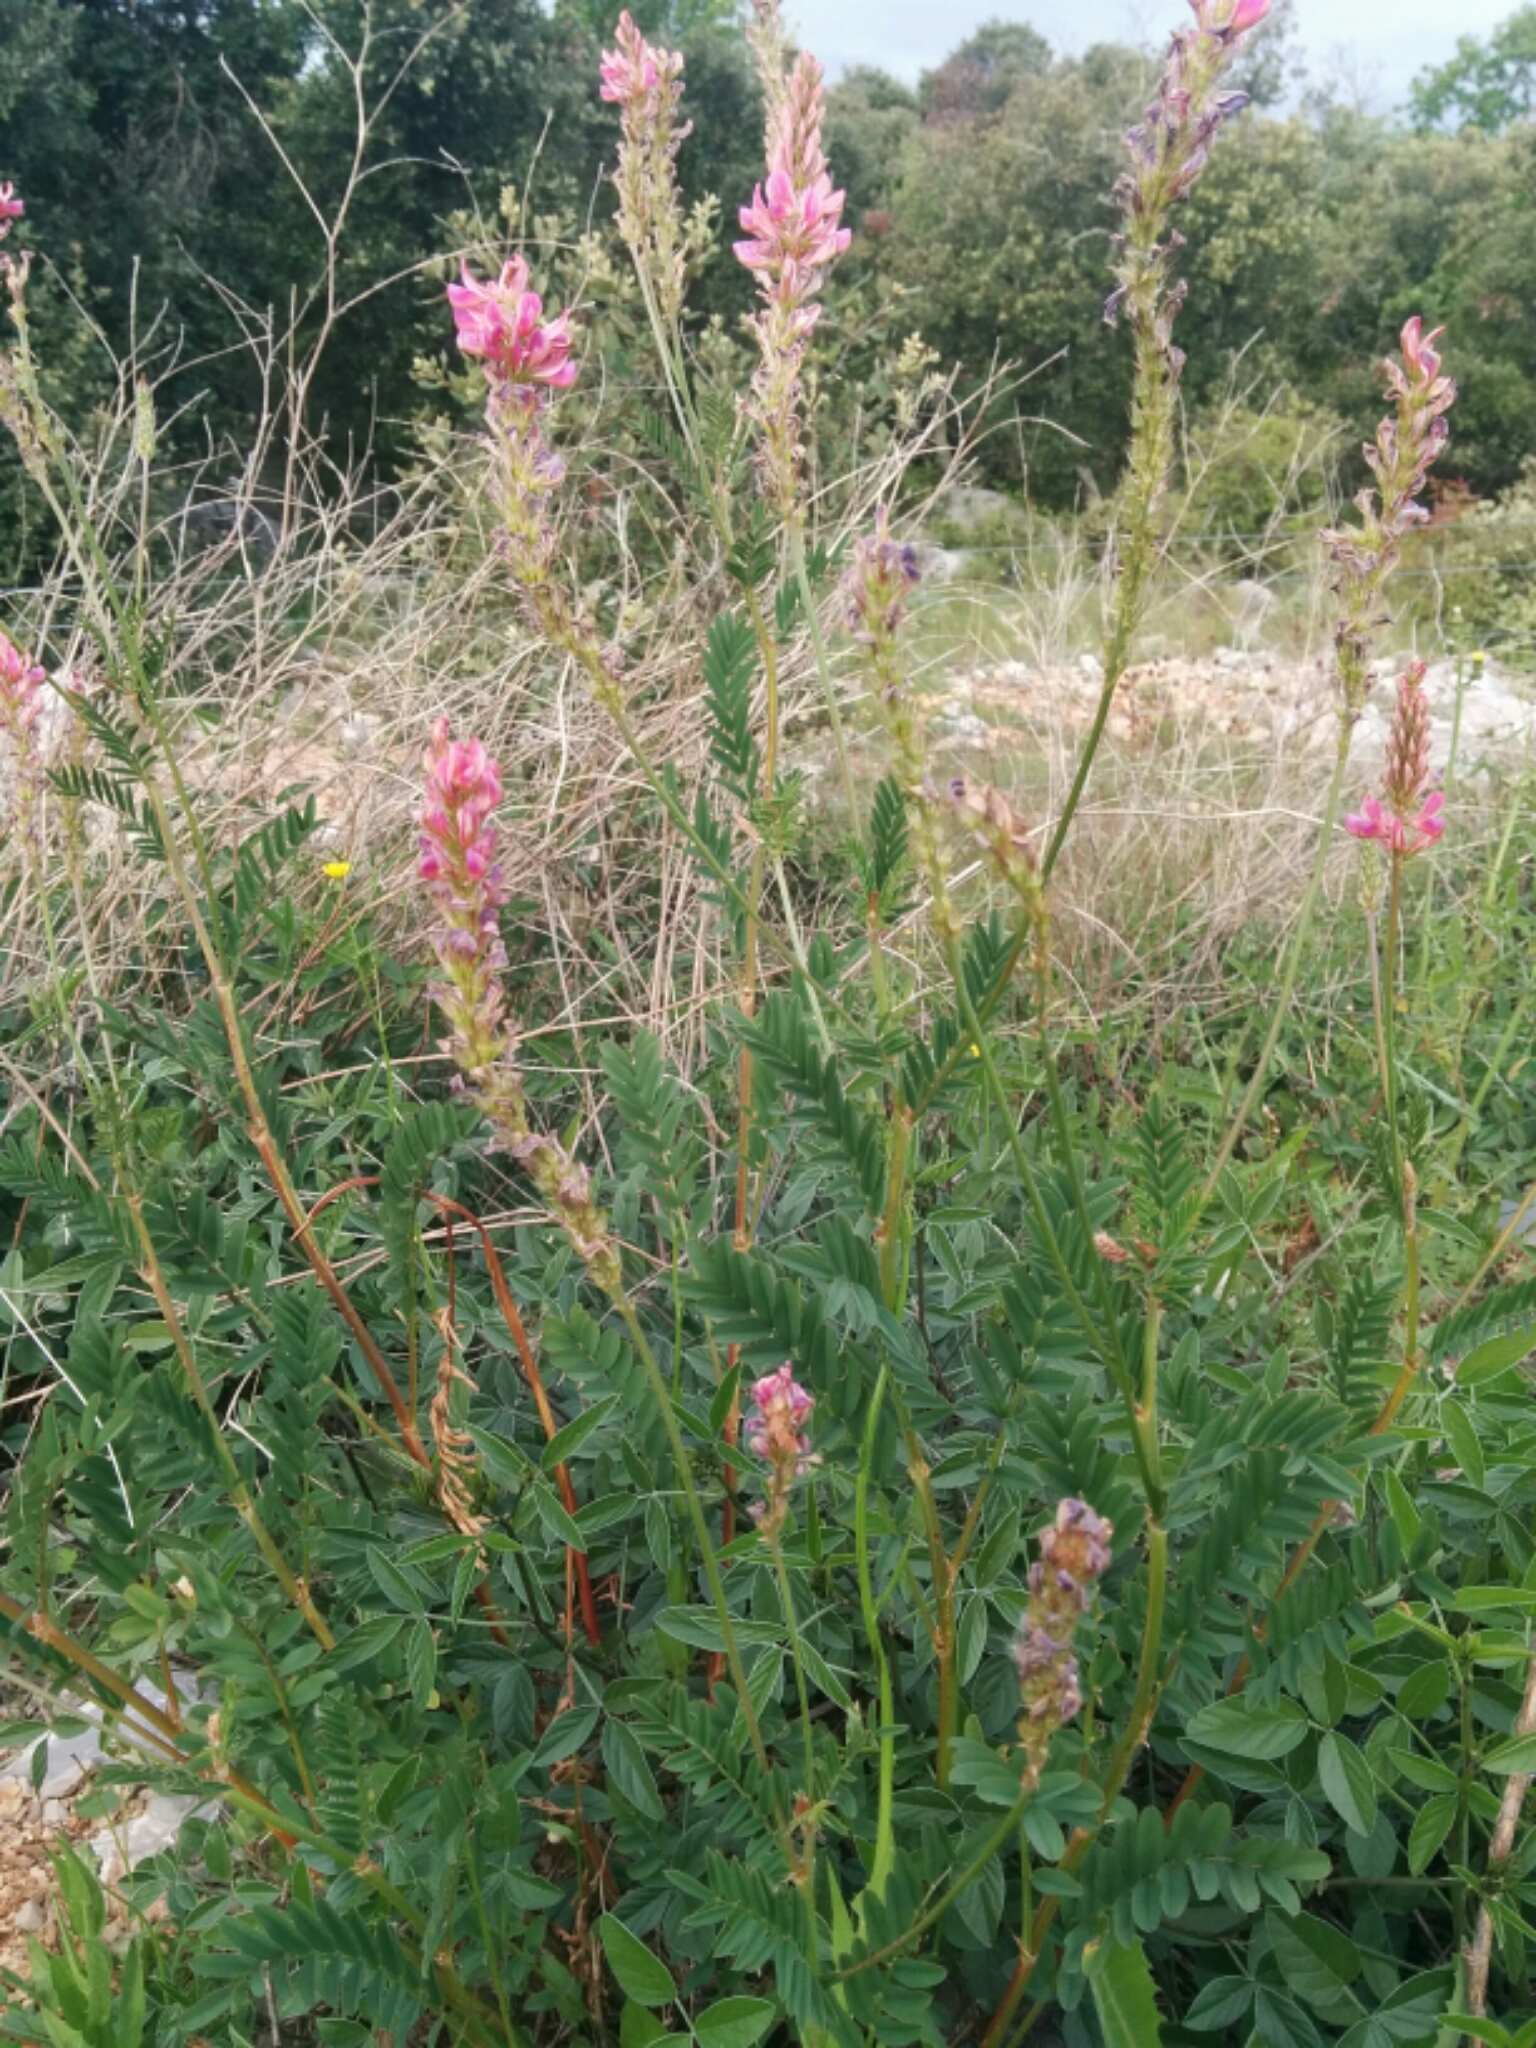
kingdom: Plantae
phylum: Tracheophyta
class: Magnoliopsida
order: Fabales
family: Fabaceae
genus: Onobrychis
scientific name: Onobrychis viciifolia
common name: Sainfoin
